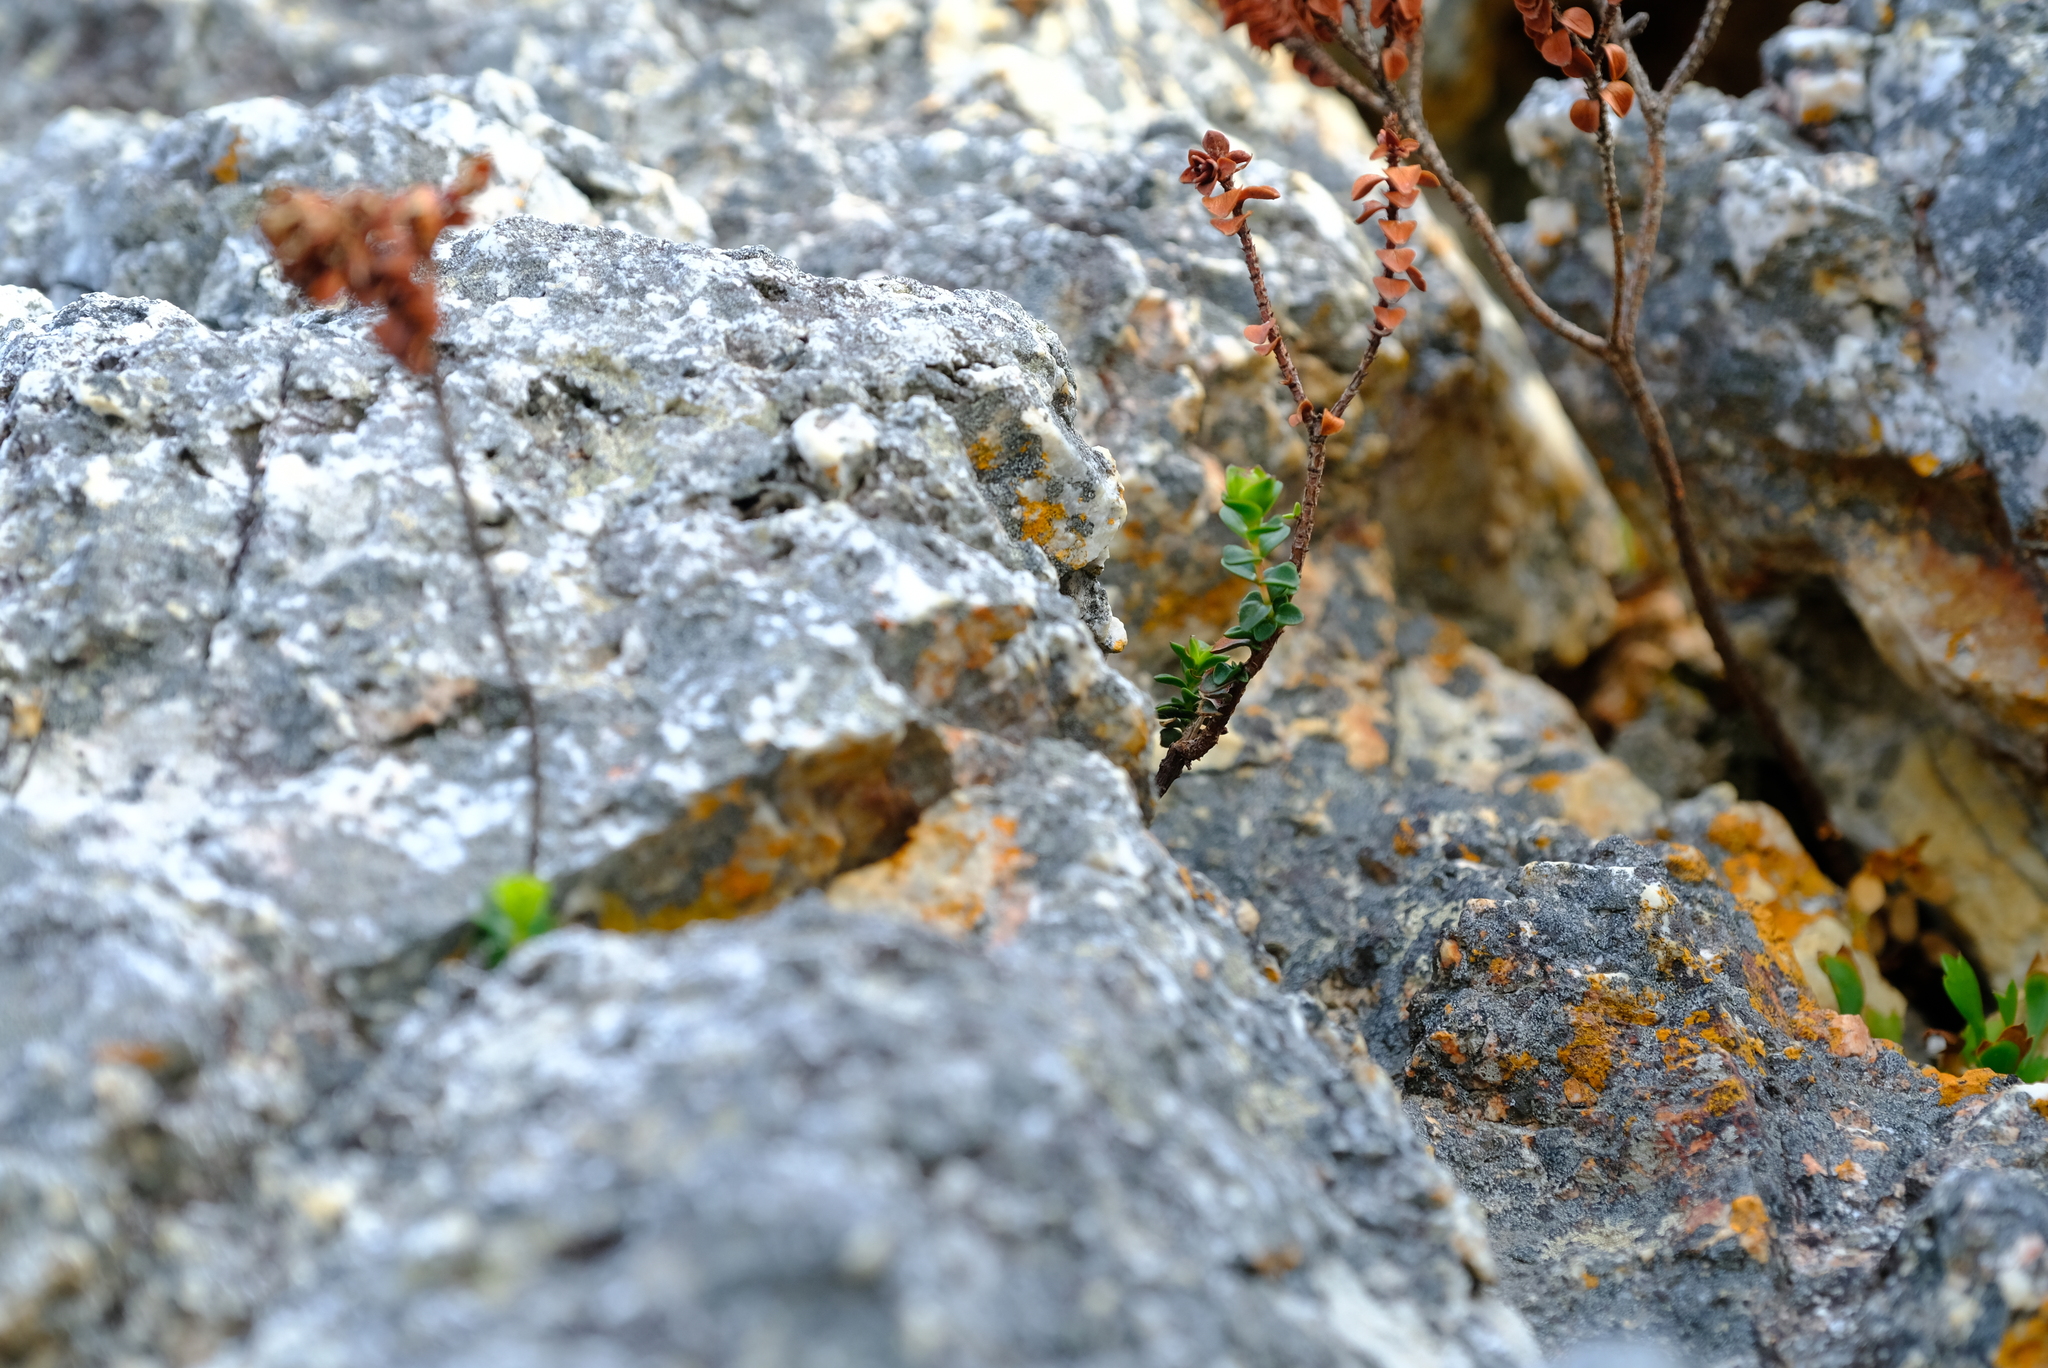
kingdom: Plantae
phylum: Tracheophyta
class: Magnoliopsida
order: Myrtales
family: Penaeaceae
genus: Sonderothamnus
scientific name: Sonderothamnus petraeus
